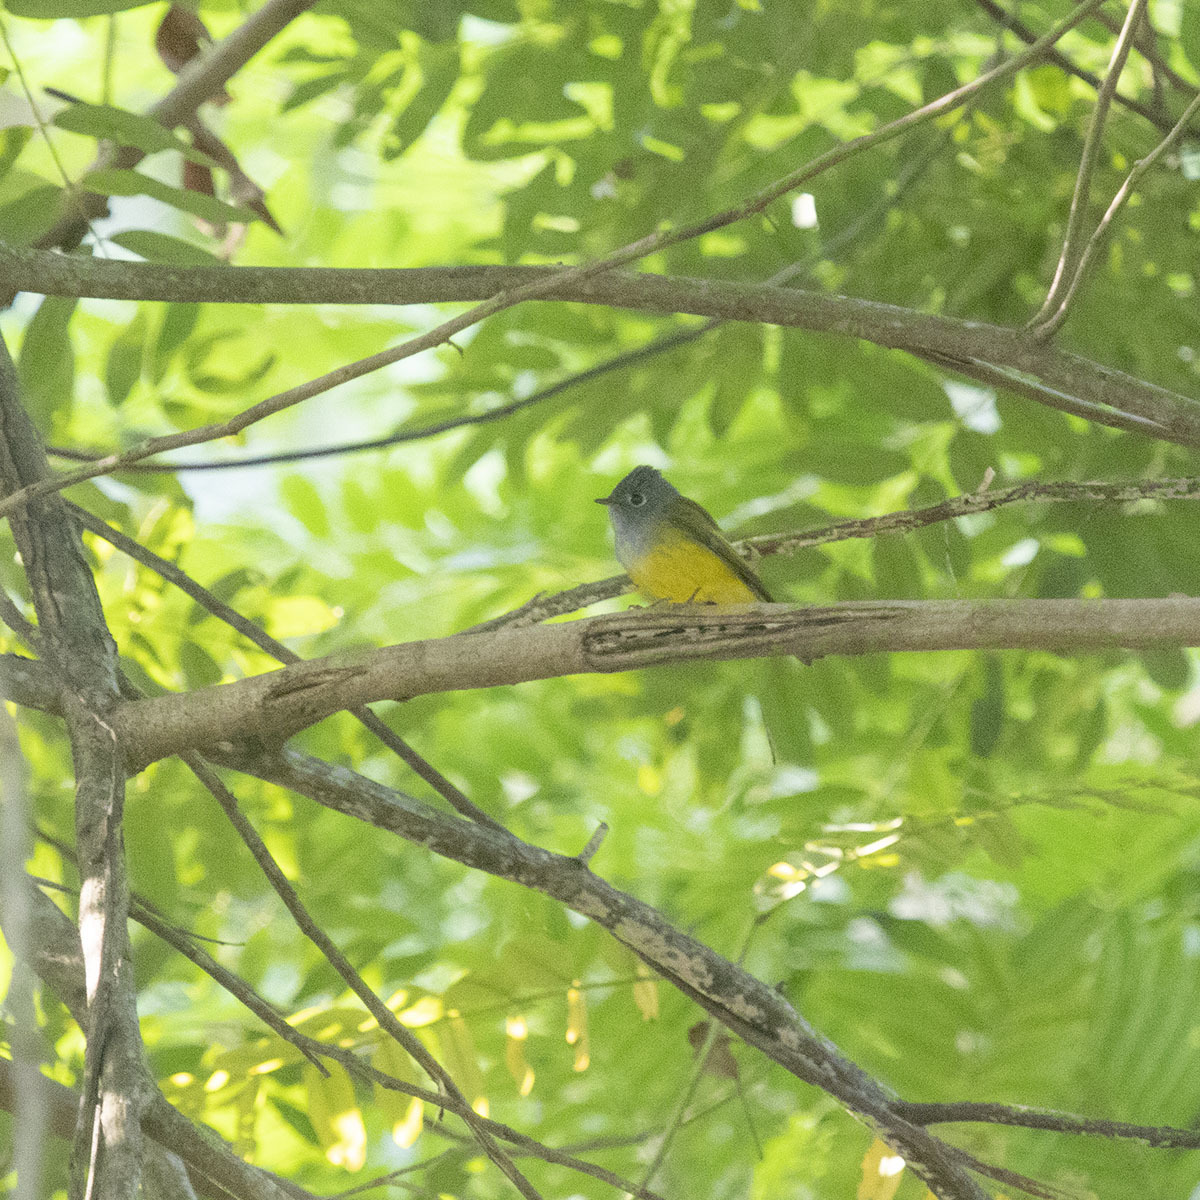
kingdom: Animalia
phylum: Chordata
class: Aves
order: Passeriformes
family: Stenostiridae
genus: Culicicapa
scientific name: Culicicapa ceylonensis
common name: Grey-headed canary-flycatcher
